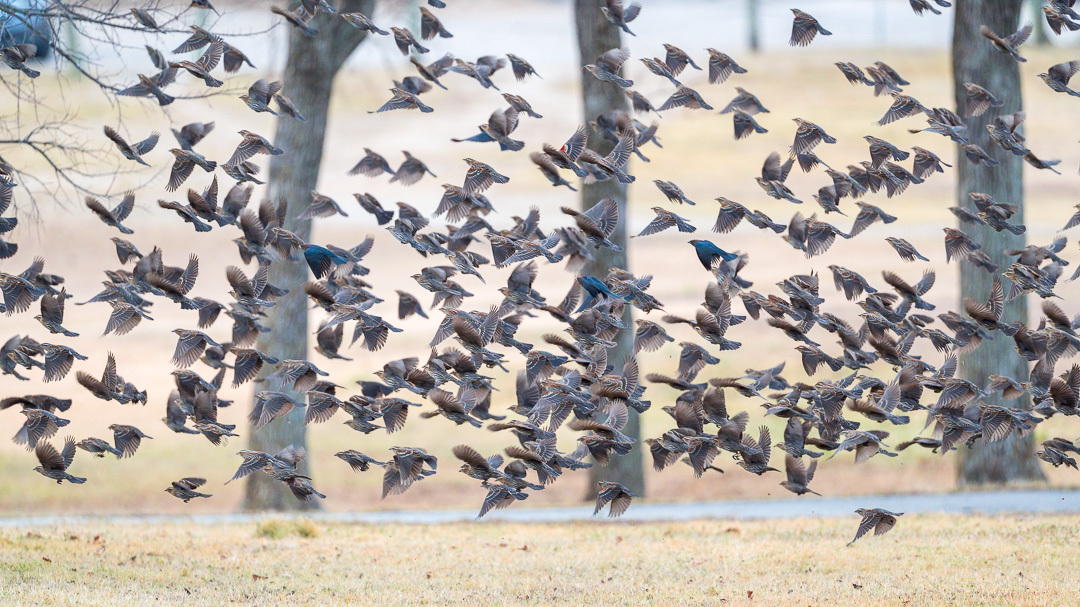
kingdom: Animalia
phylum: Chordata
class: Aves
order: Passeriformes
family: Icteridae
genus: Agelaius
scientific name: Agelaius phoeniceus
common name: Red-winged blackbird
